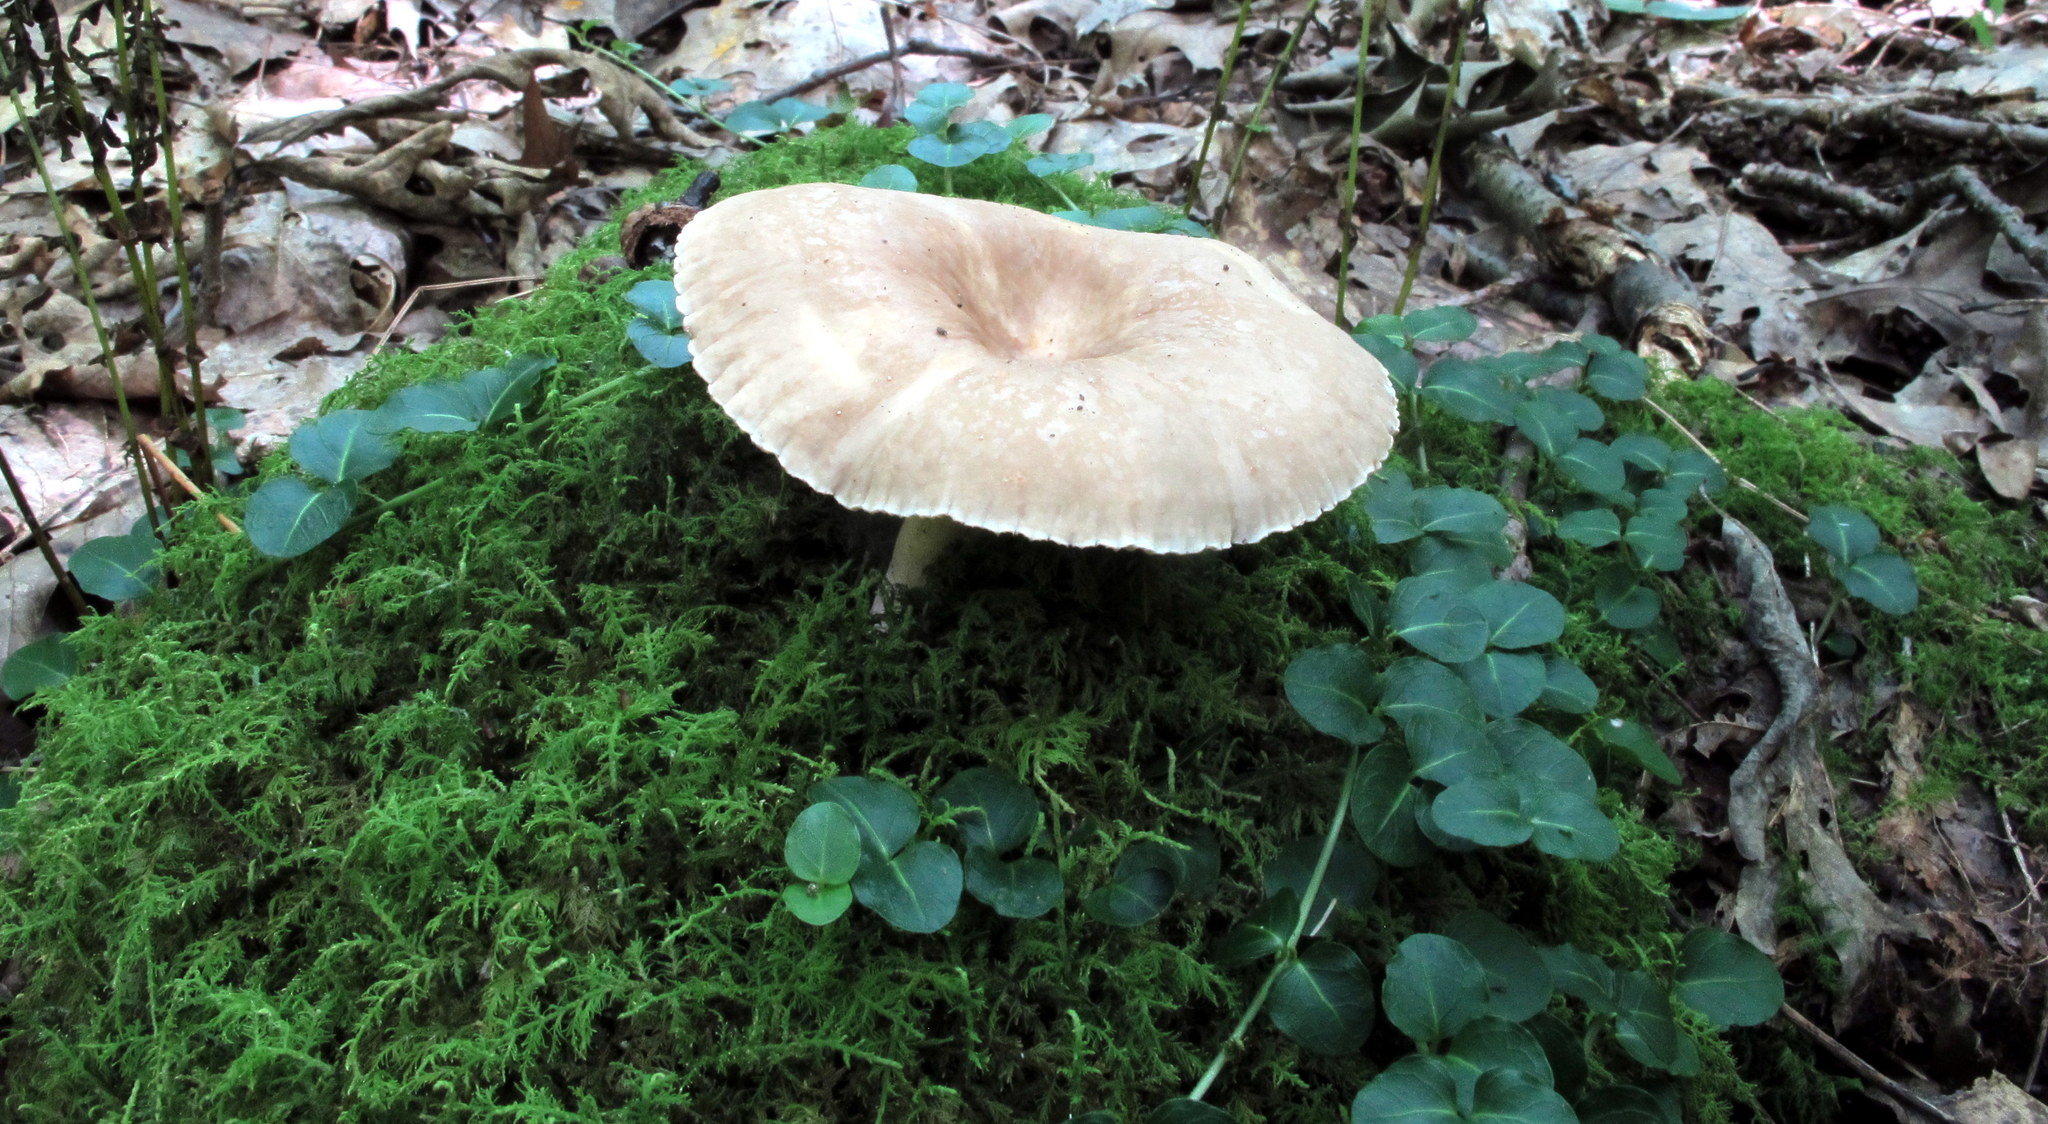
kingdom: Fungi
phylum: Basidiomycota
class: Agaricomycetes
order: Russulales
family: Russulaceae
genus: Lactarius
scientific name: Lactarius subplinthogalus
